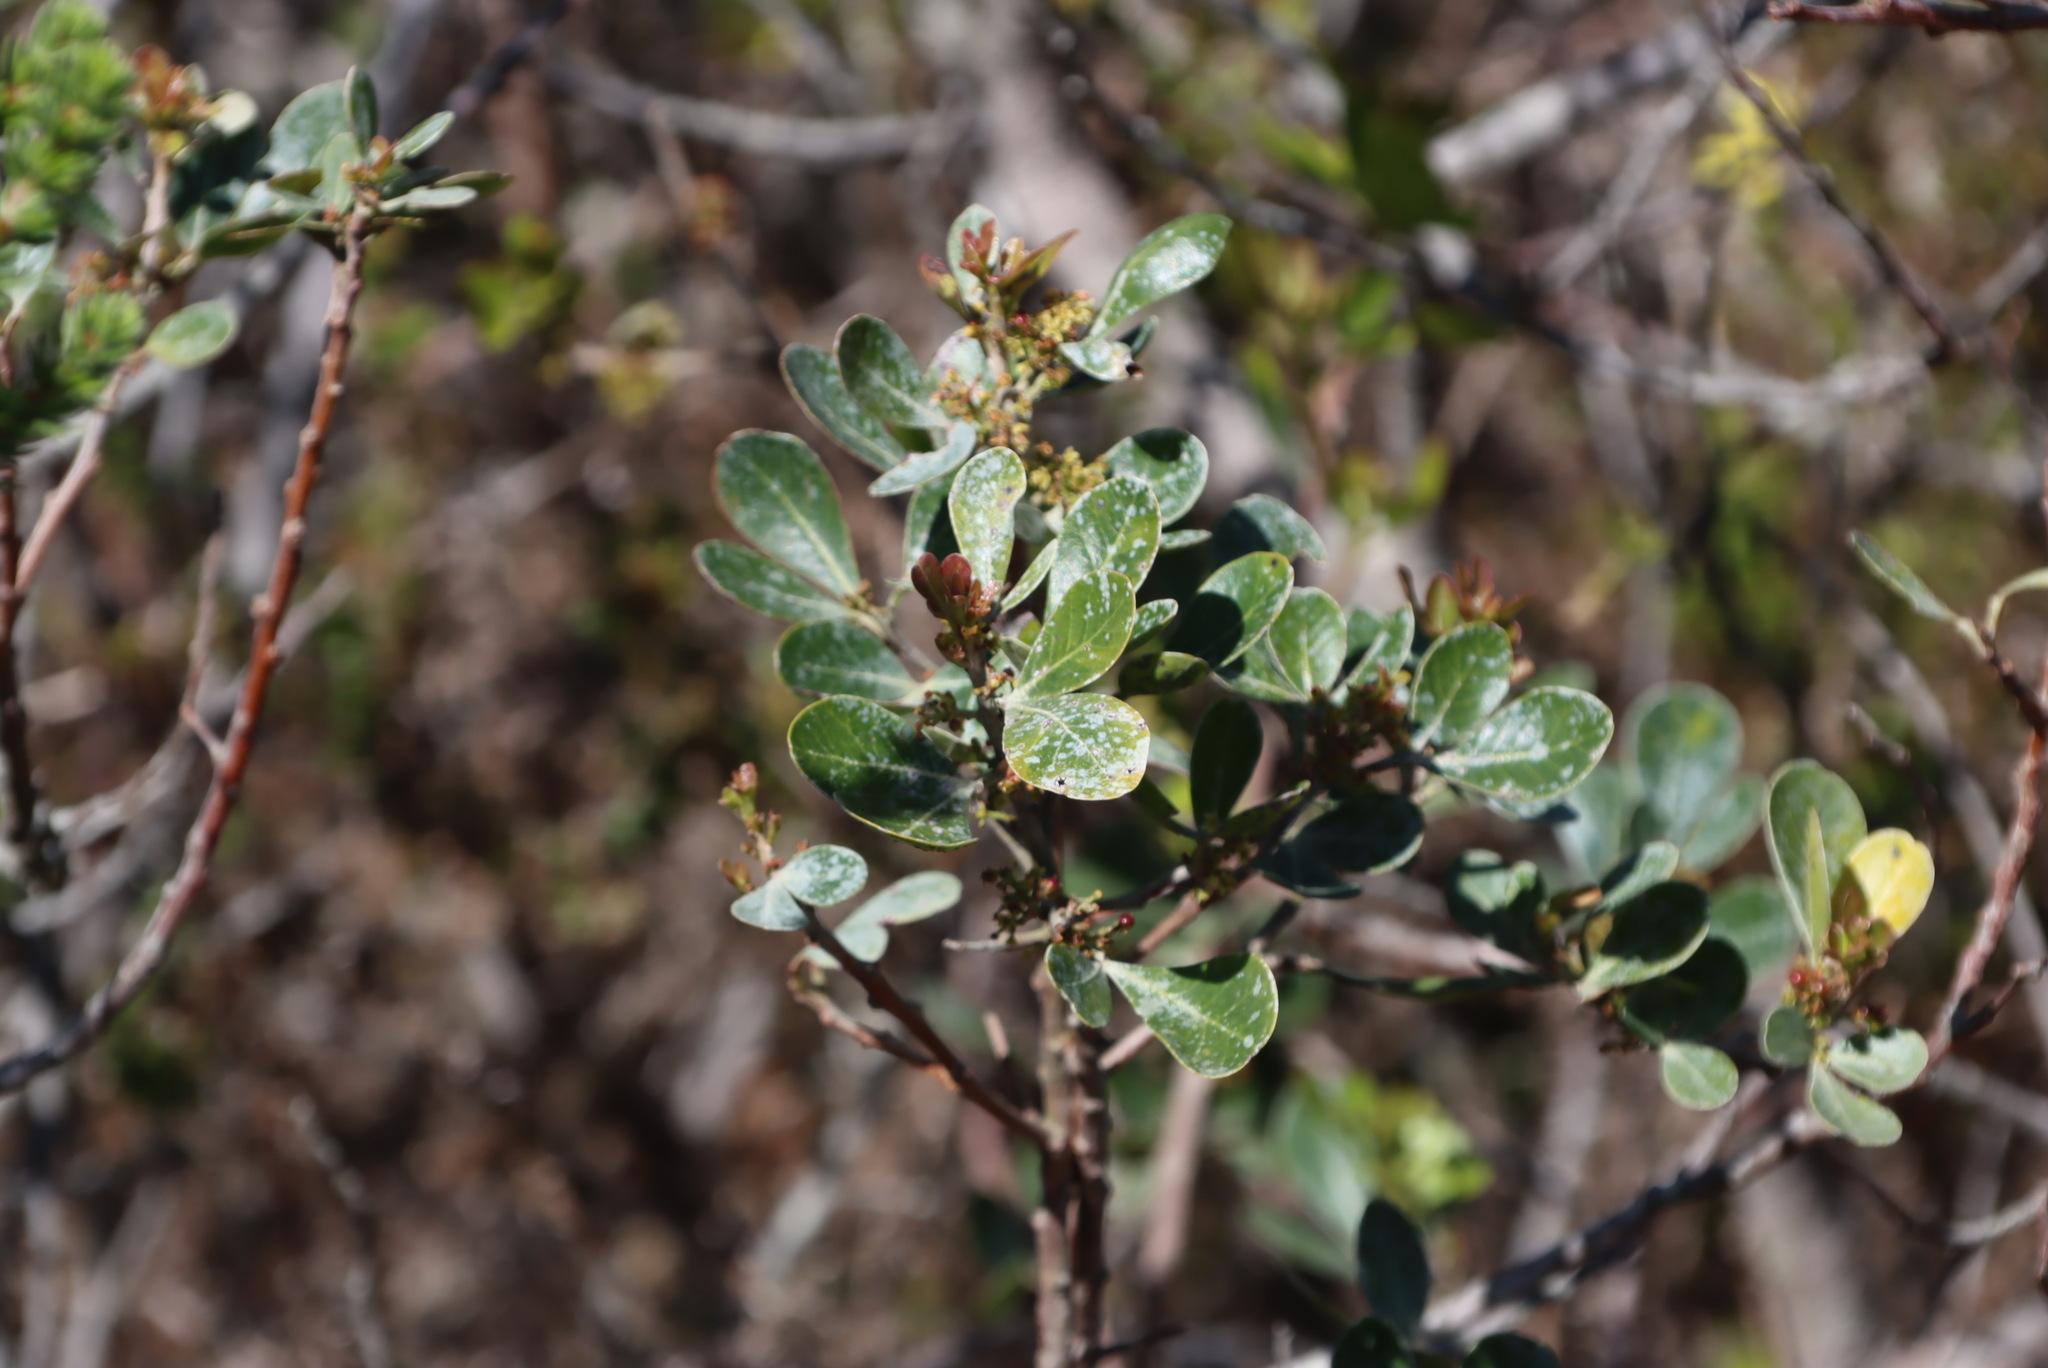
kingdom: Plantae
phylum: Tracheophyta
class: Magnoliopsida
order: Sapindales
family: Anacardiaceae
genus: Searsia
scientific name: Searsia lucida
